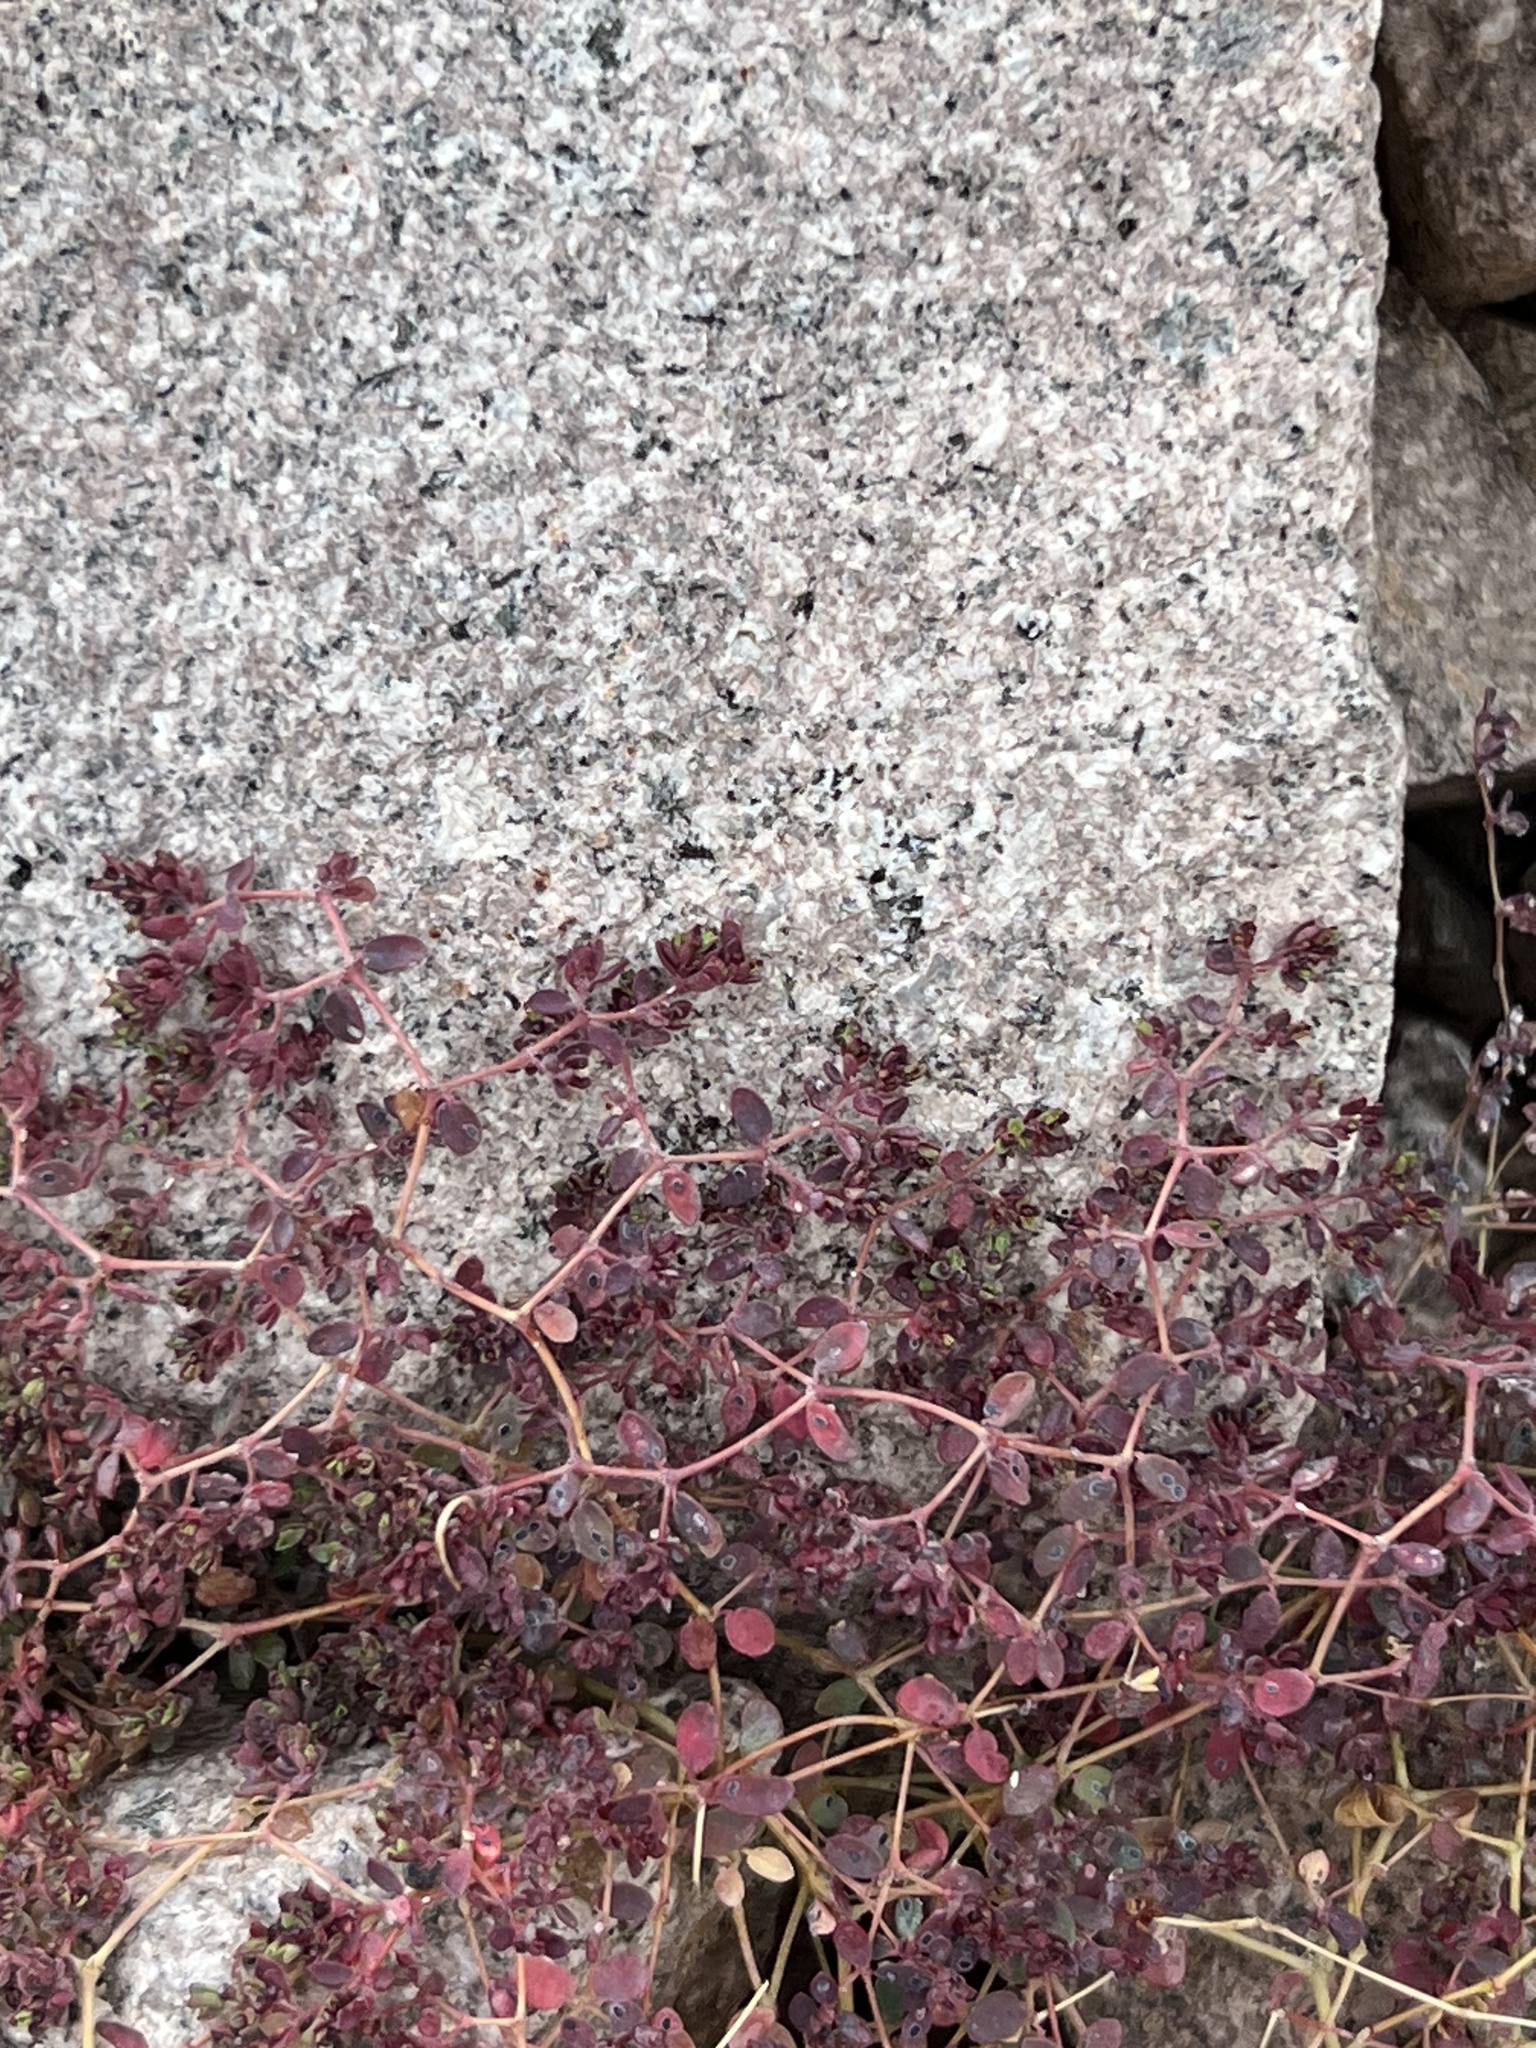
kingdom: Plantae
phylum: Tracheophyta
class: Magnoliopsida
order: Malpighiales
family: Euphorbiaceae
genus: Euphorbia
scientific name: Euphorbia polycarpa
